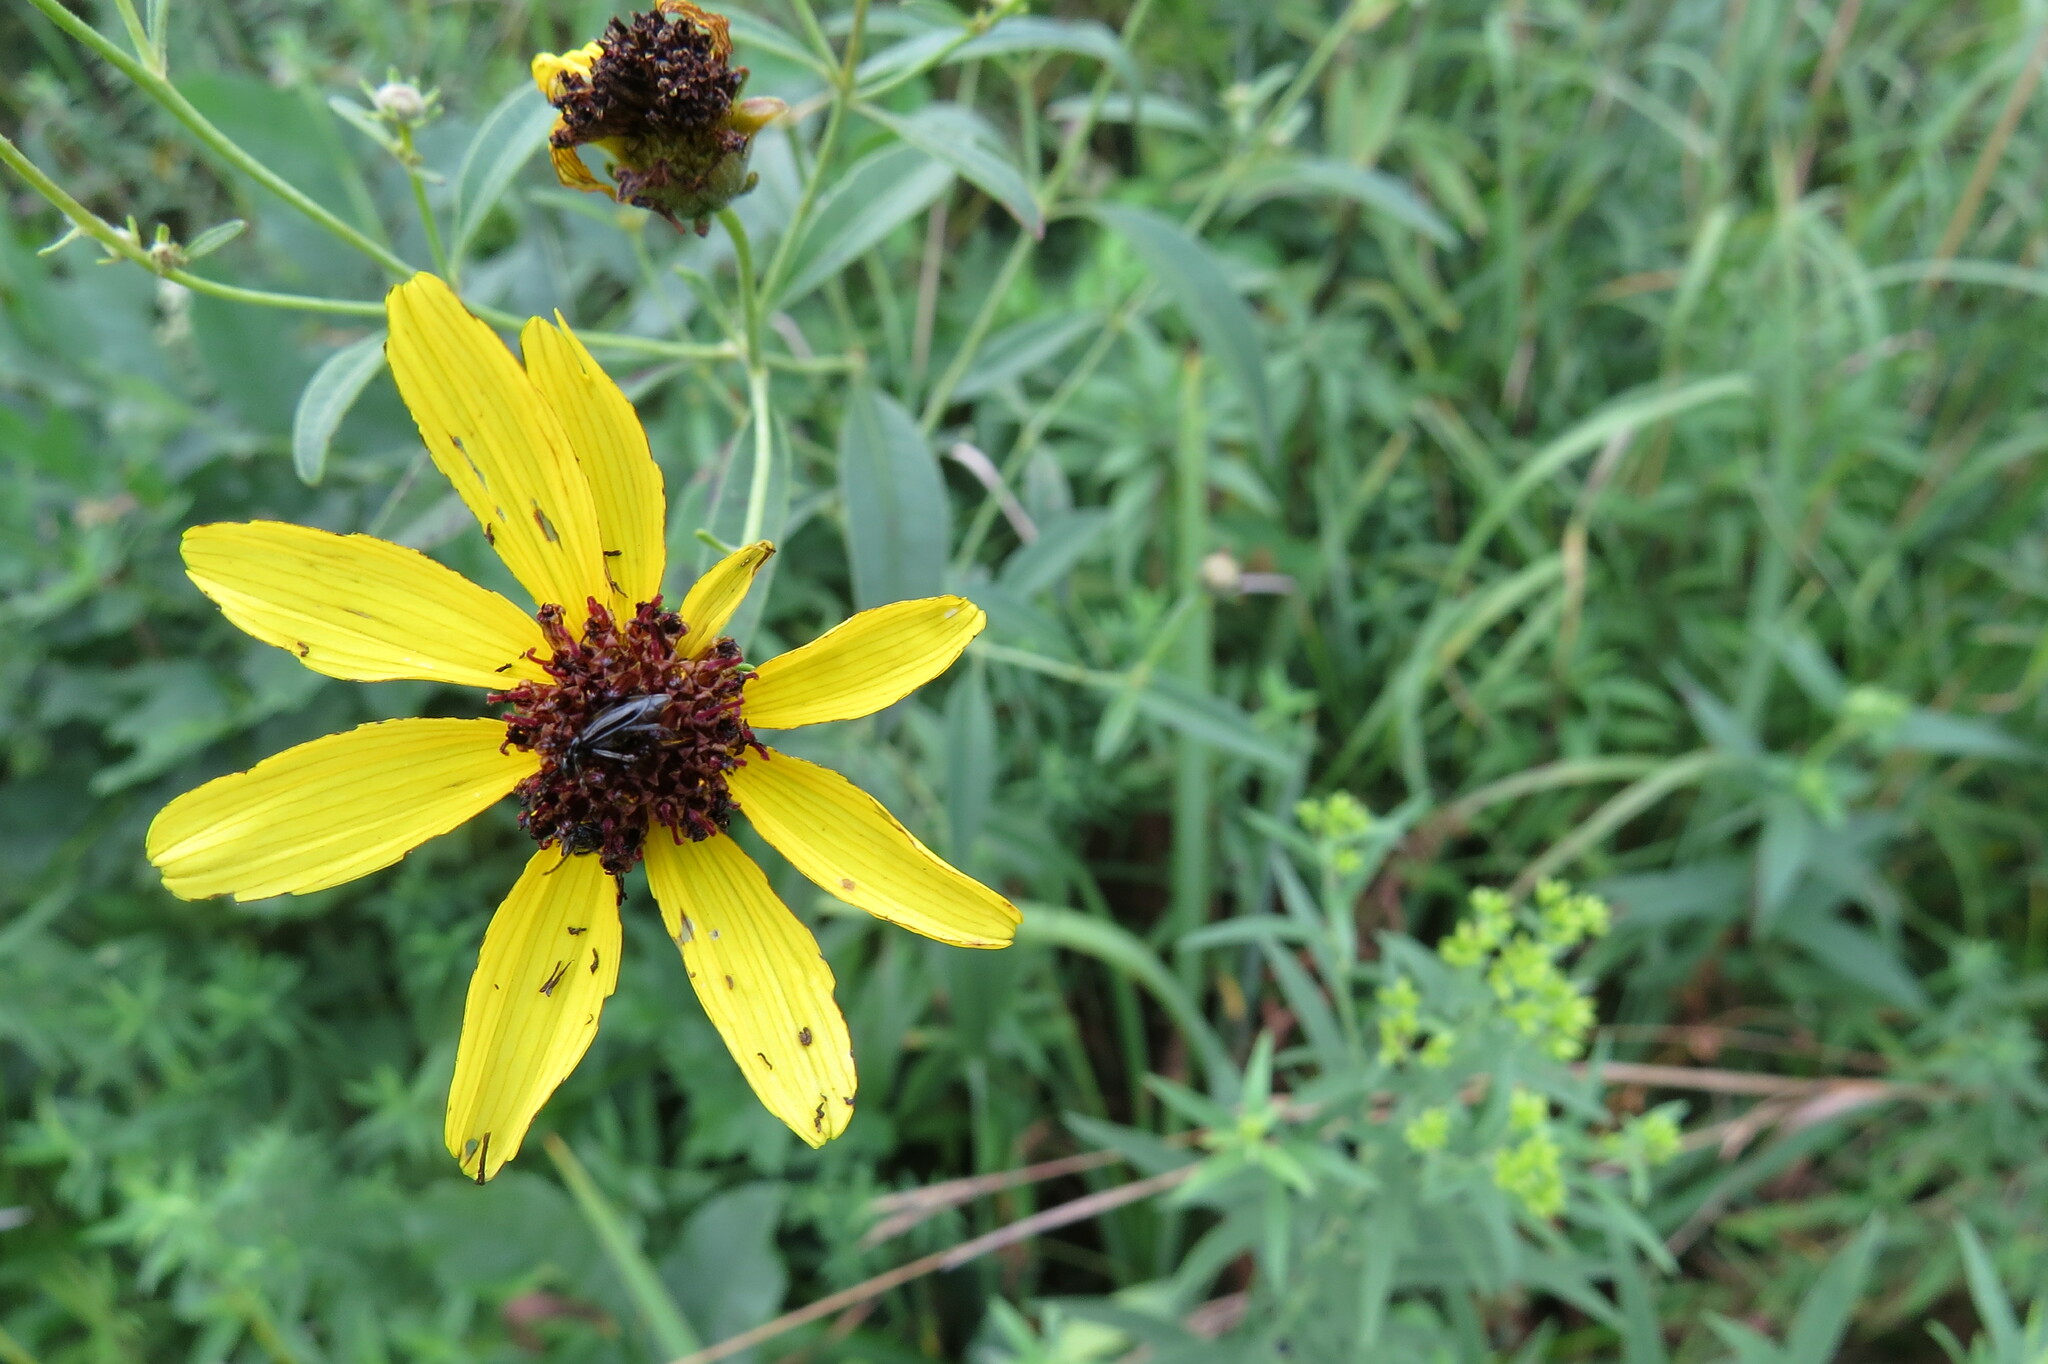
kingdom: Plantae
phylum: Tracheophyta
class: Magnoliopsida
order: Asterales
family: Asteraceae
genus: Coreopsis
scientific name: Coreopsis tripteris
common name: Tall coreopsis
